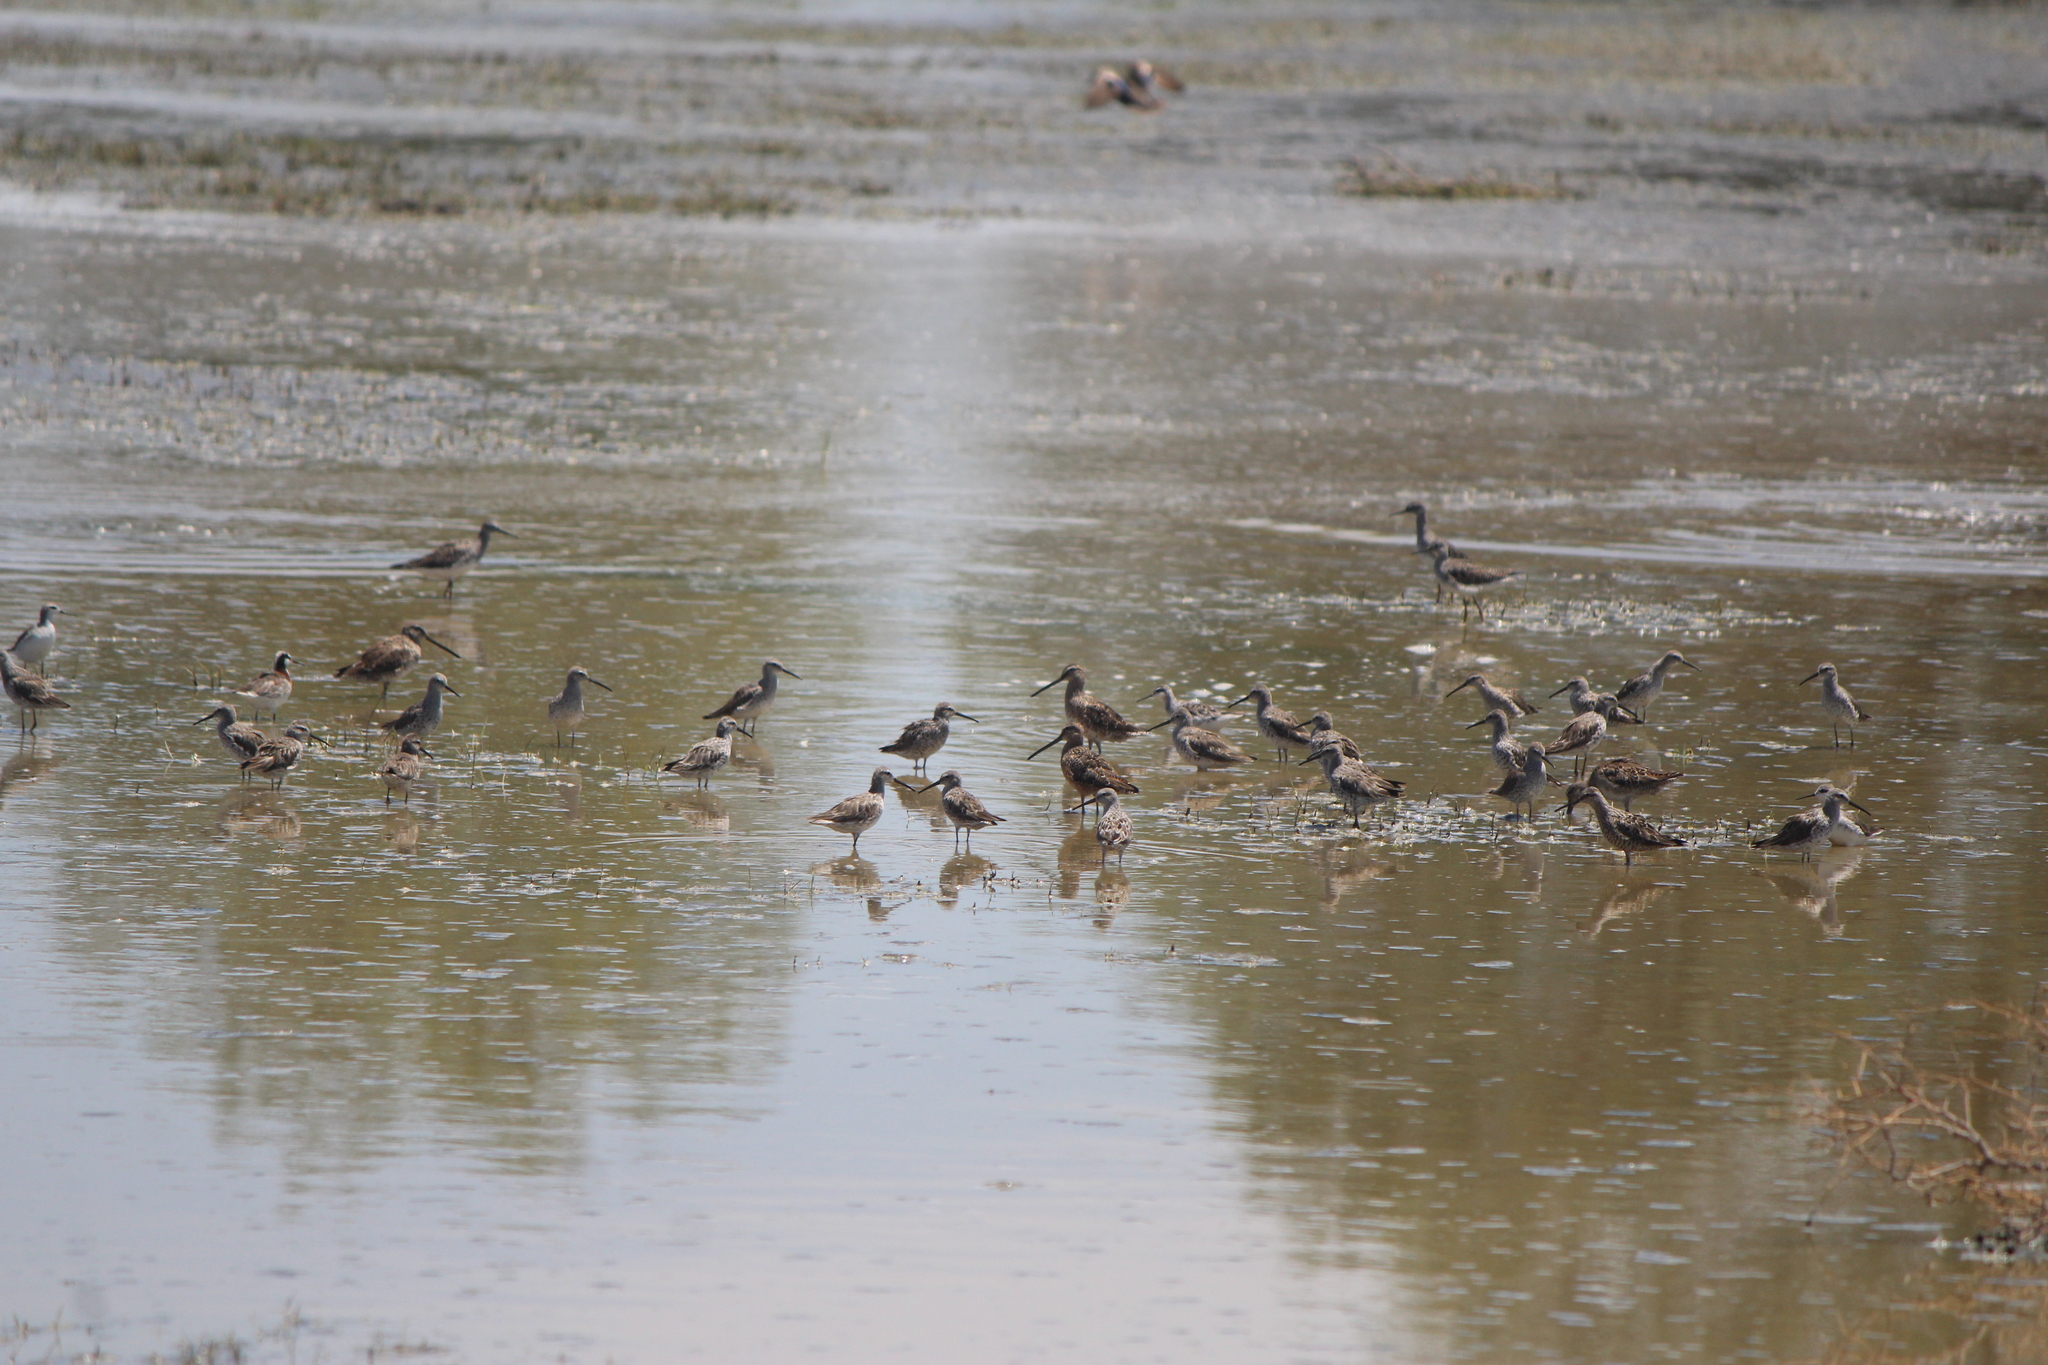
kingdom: Animalia
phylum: Chordata
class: Aves
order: Charadriiformes
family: Scolopacidae
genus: Limnodromus
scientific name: Limnodromus scolopaceus
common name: Long-billed dowitcher
